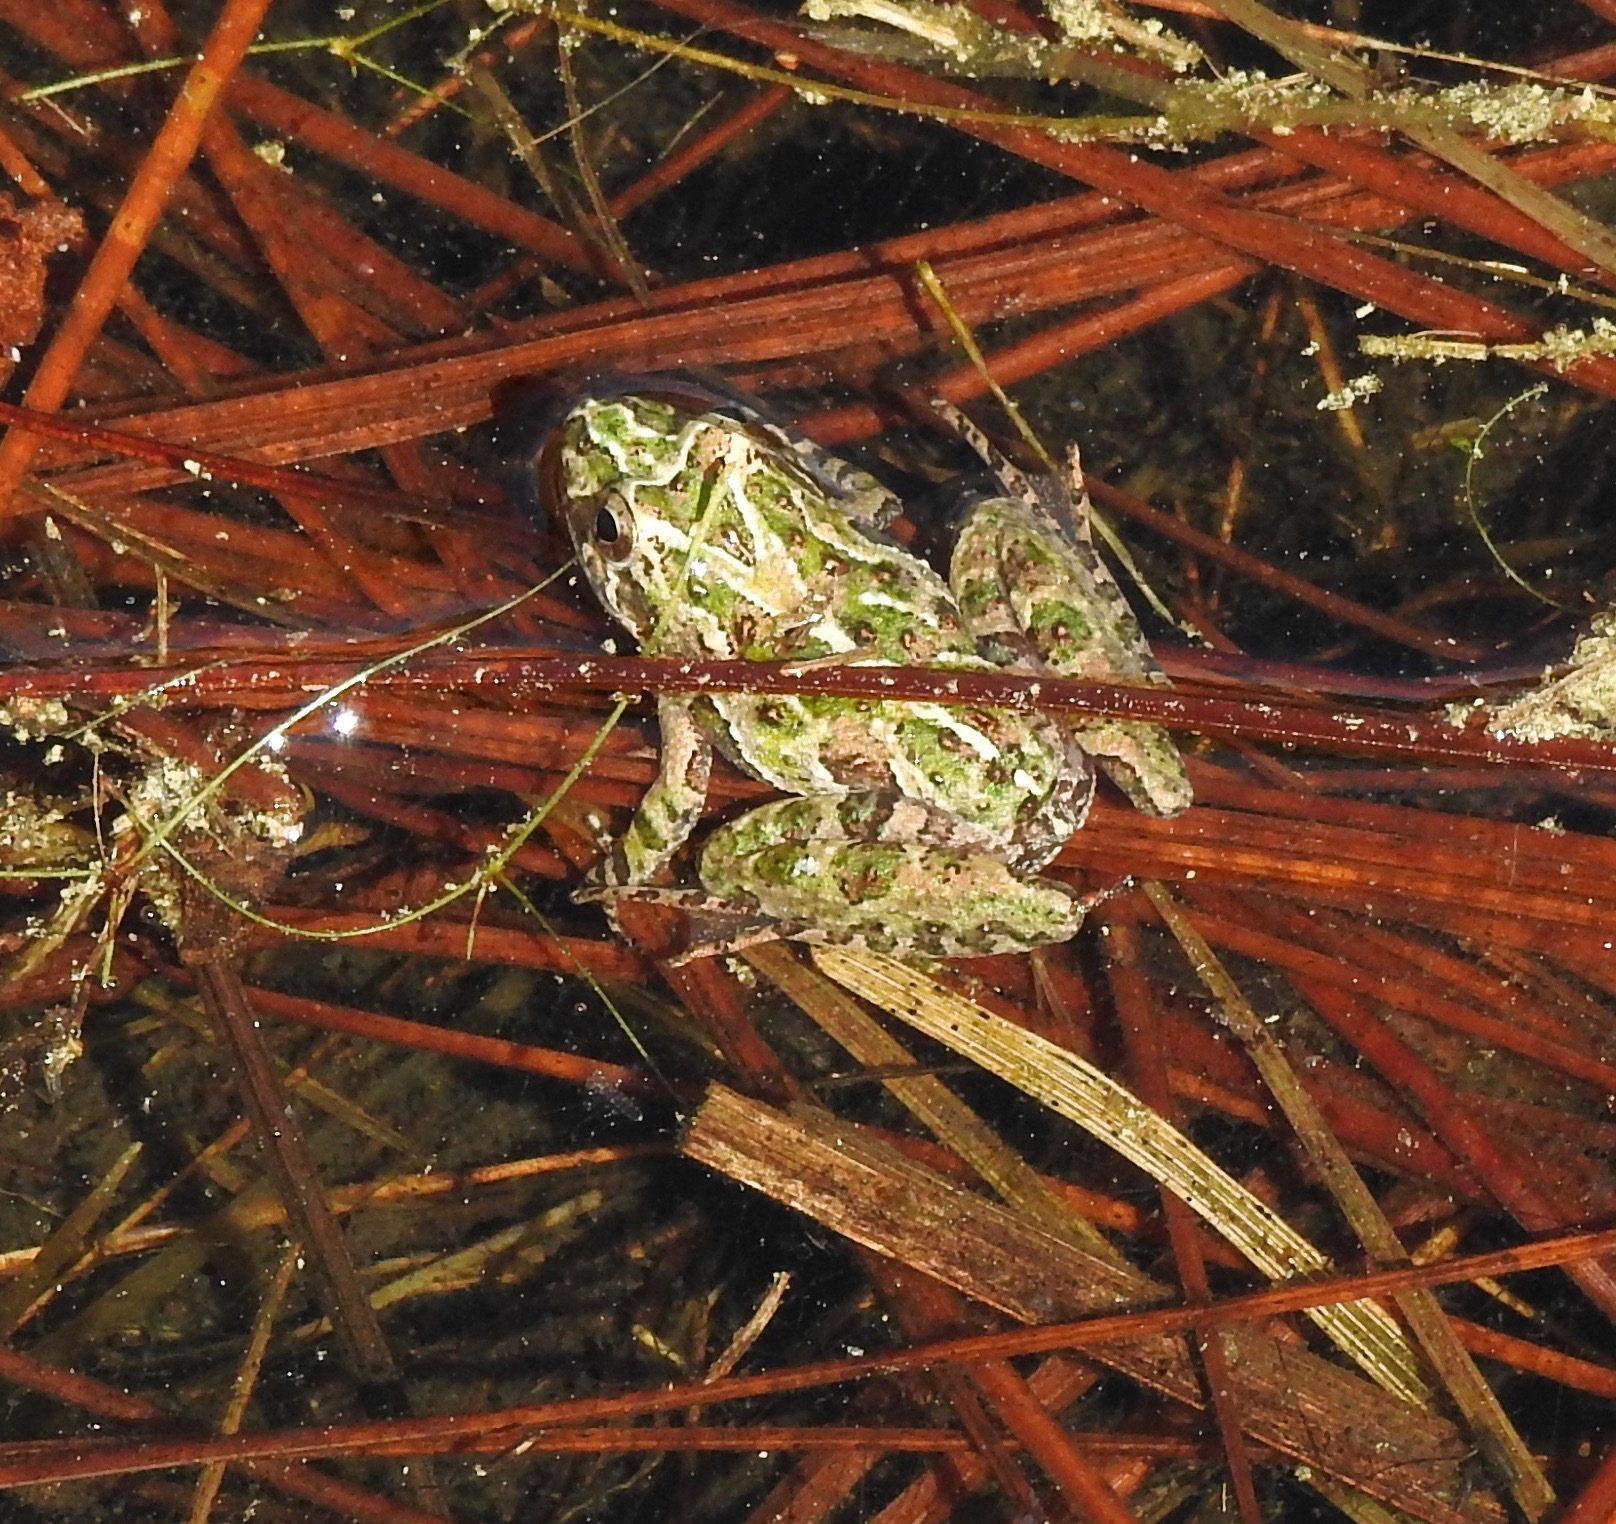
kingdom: Animalia
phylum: Chordata
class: Amphibia
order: Anura
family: Hylidae
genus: Acris
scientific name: Acris gryllus
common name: Southern cricket frog
